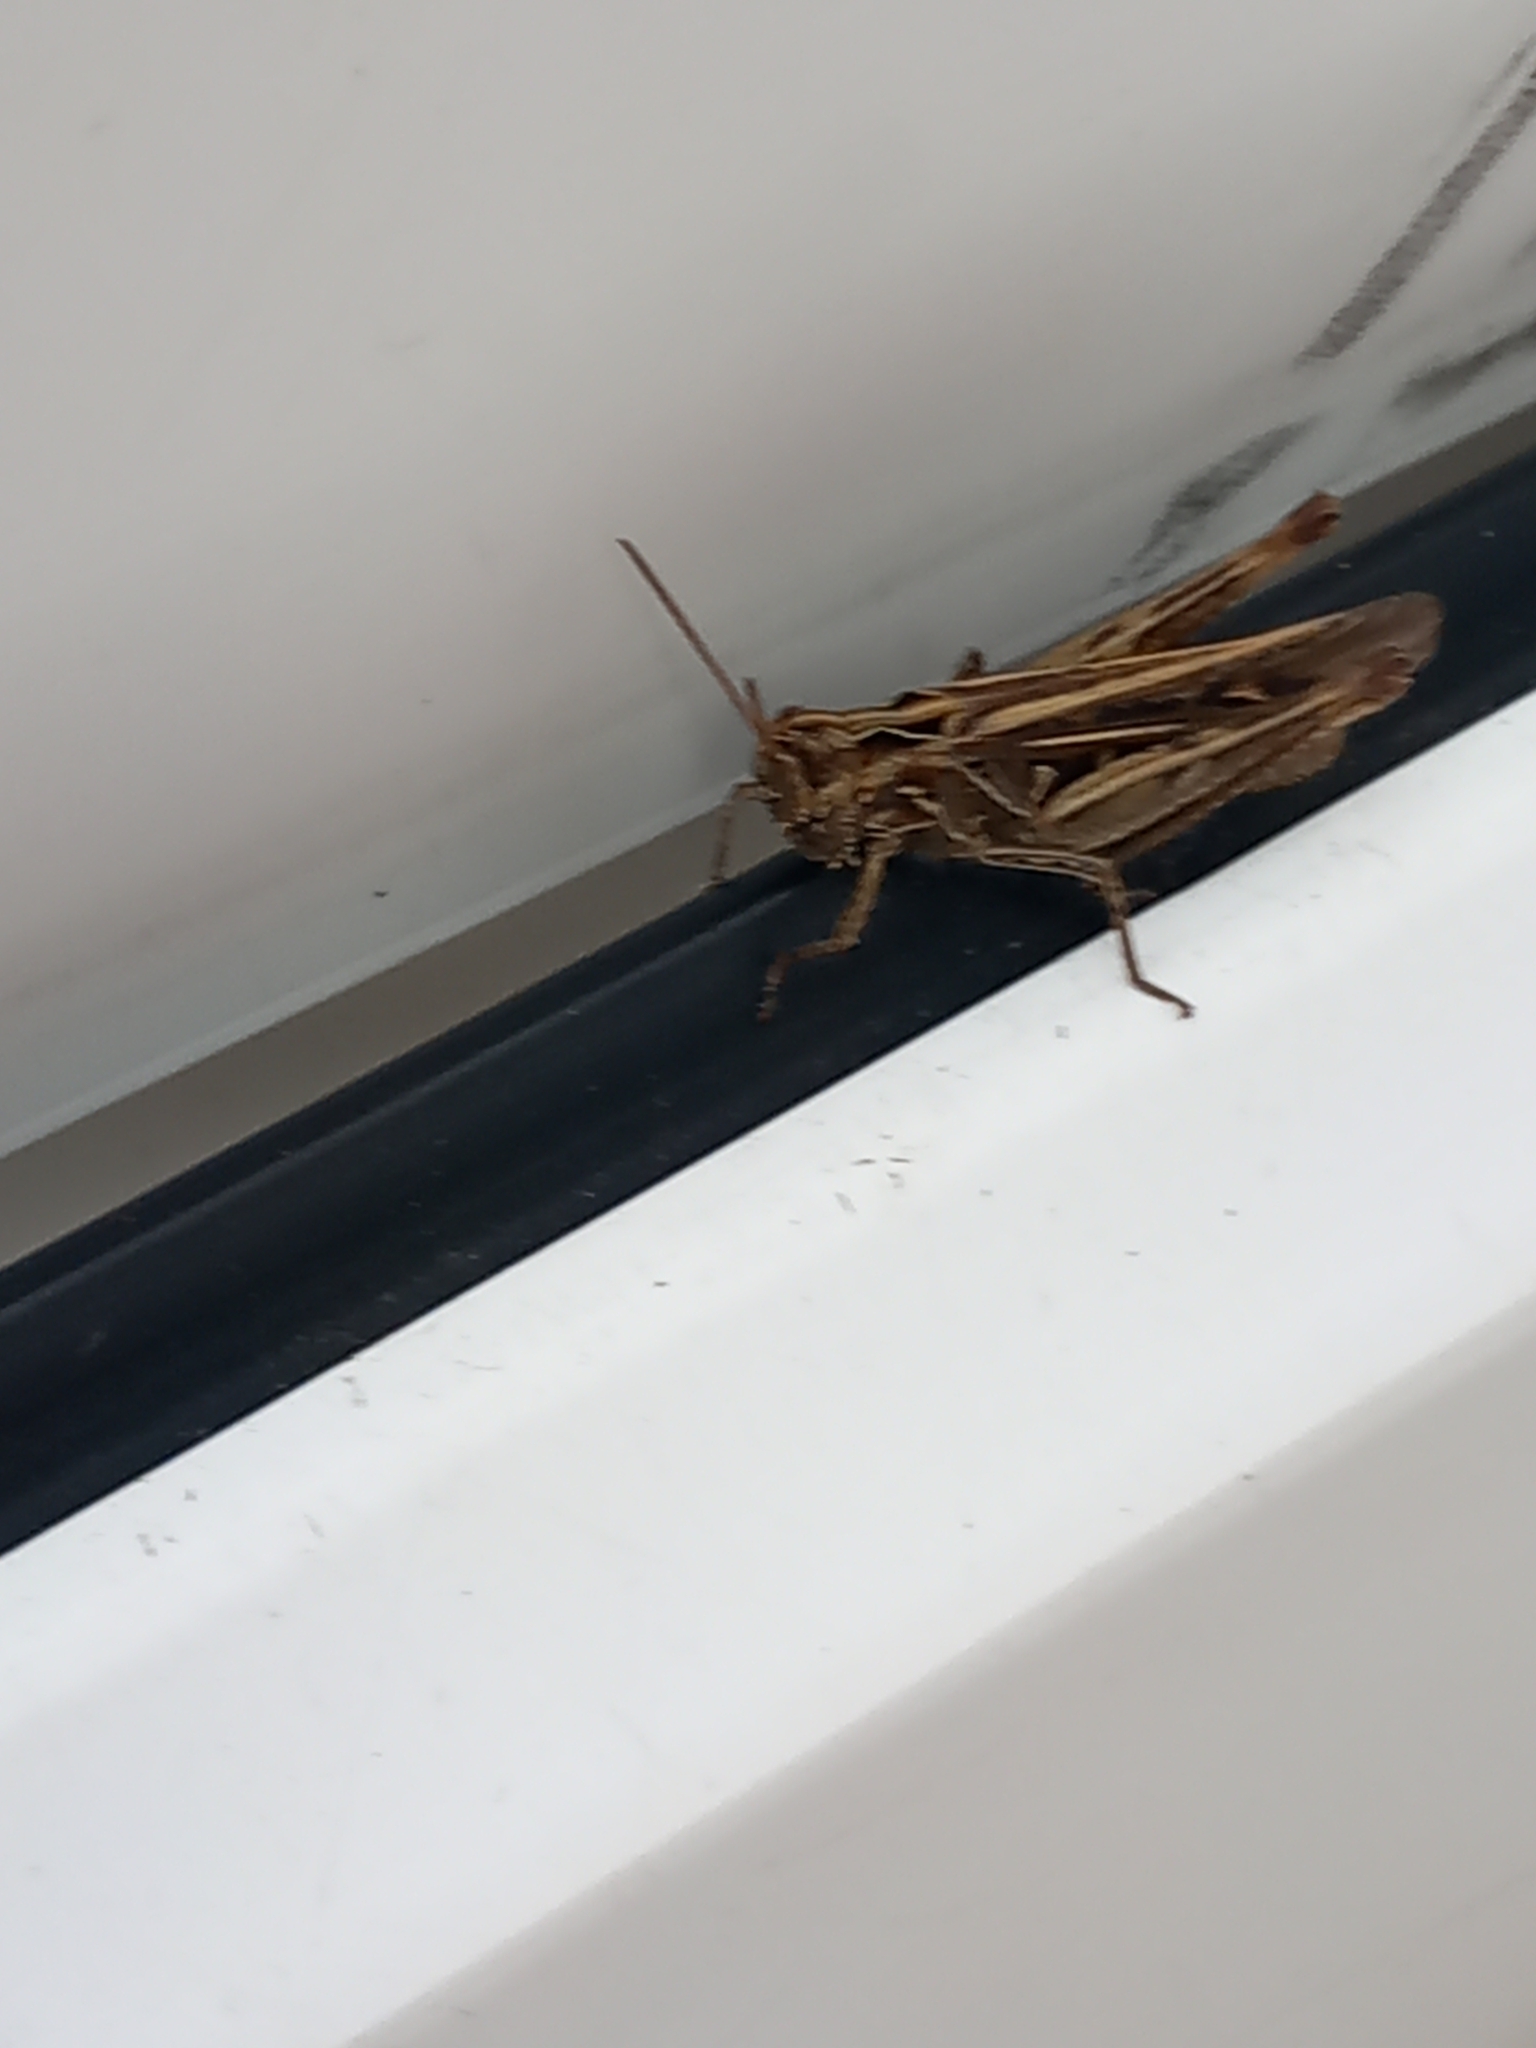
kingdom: Animalia
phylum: Arthropoda
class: Insecta
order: Orthoptera
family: Acrididae
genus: Chorthippus
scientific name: Chorthippus brunneus
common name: Field grasshopper
